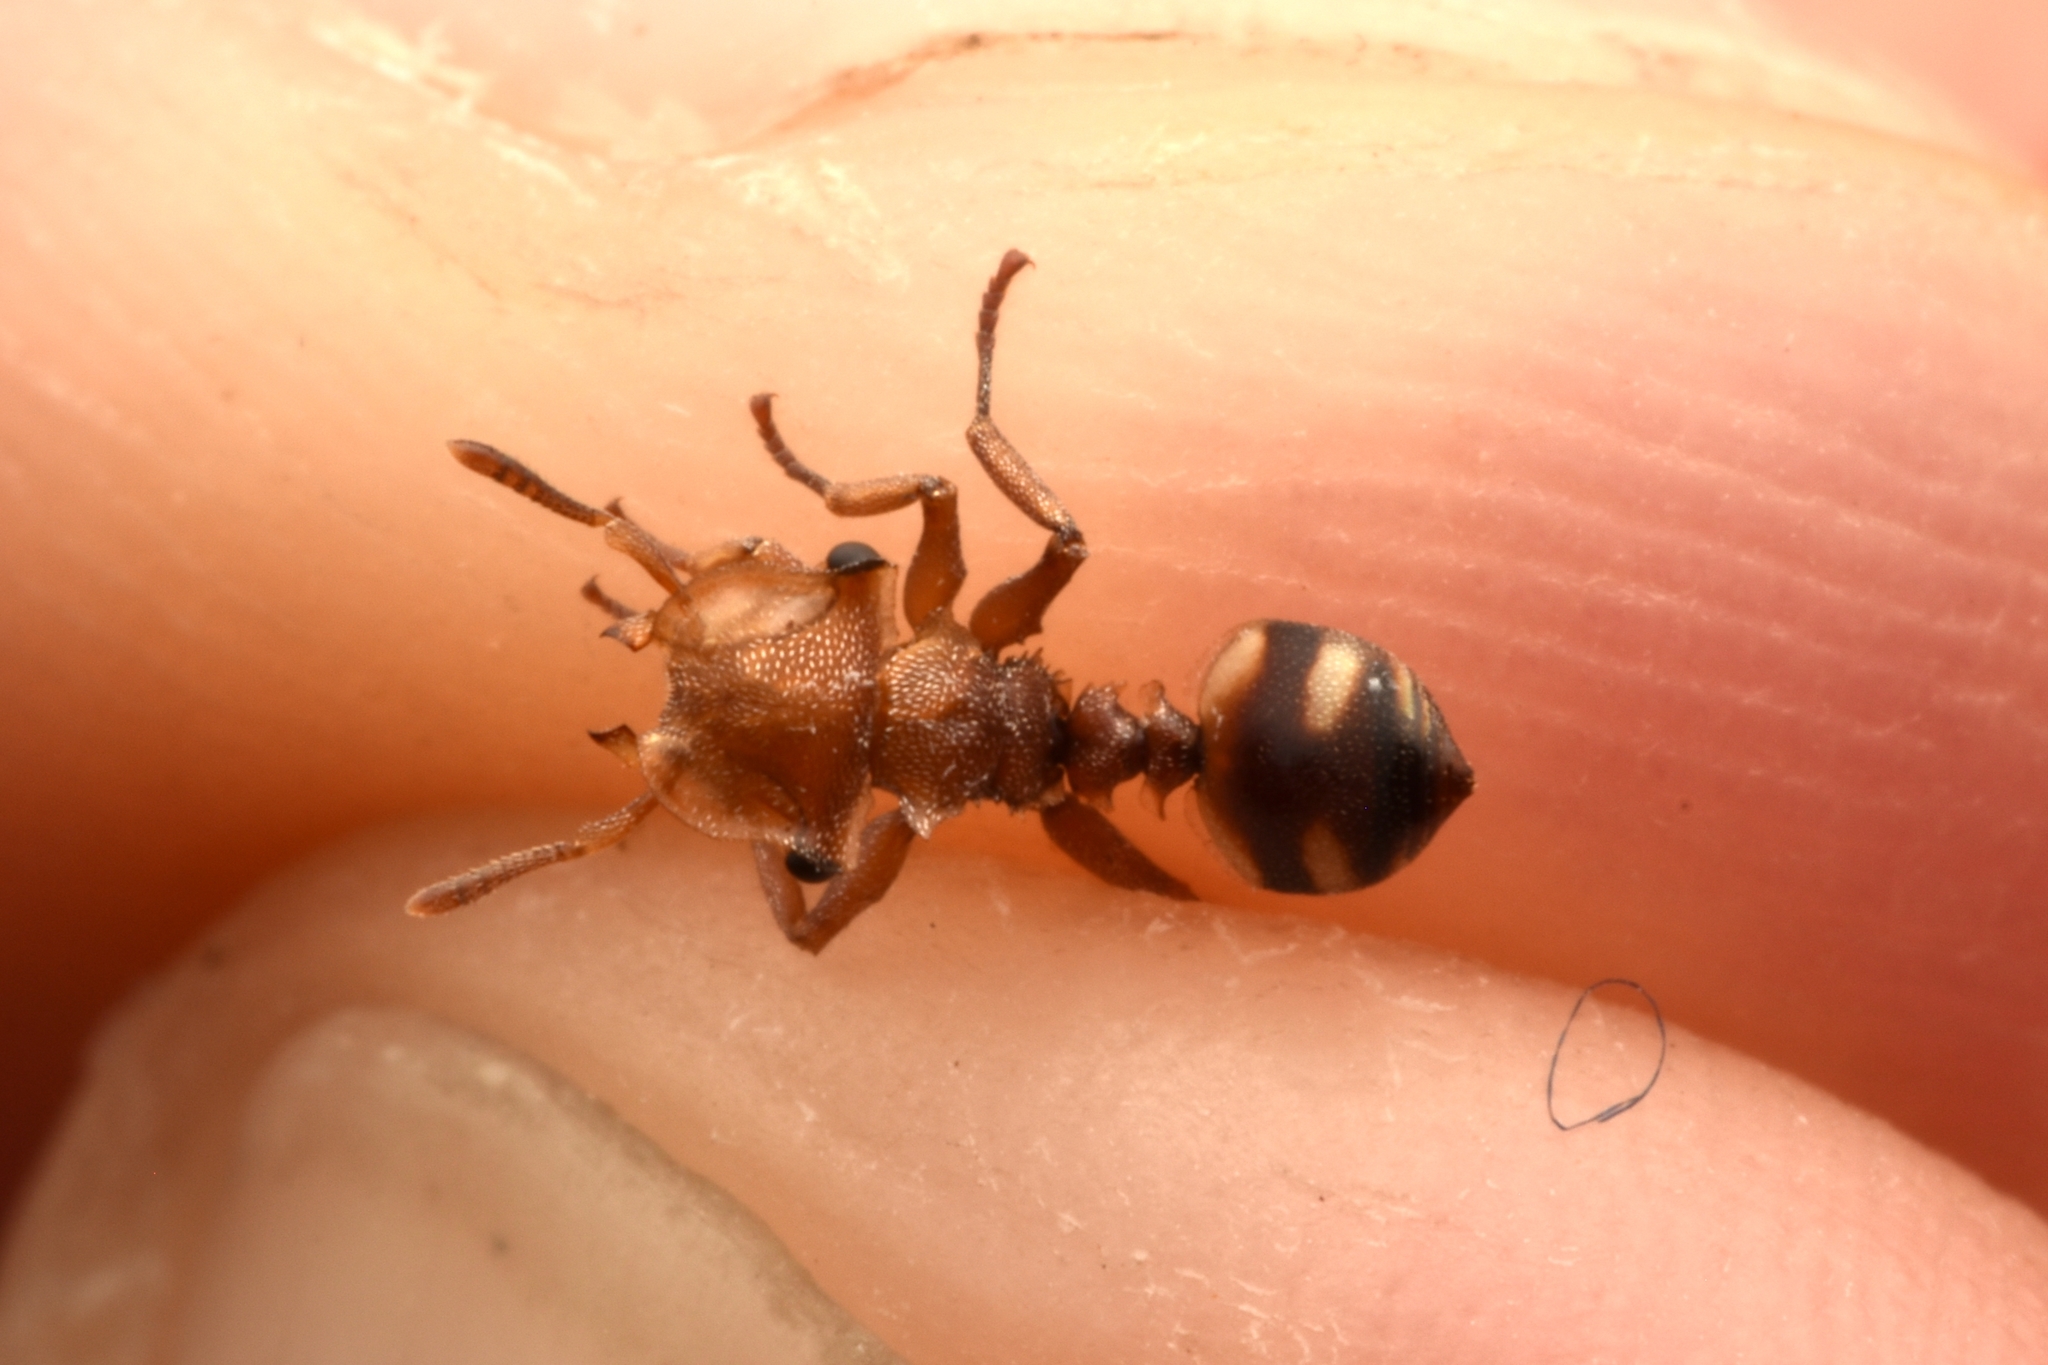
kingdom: Animalia
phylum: Arthropoda
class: Insecta
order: Hymenoptera
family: Formicidae
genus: Cephalotes
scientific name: Cephalotes umbraculatus
